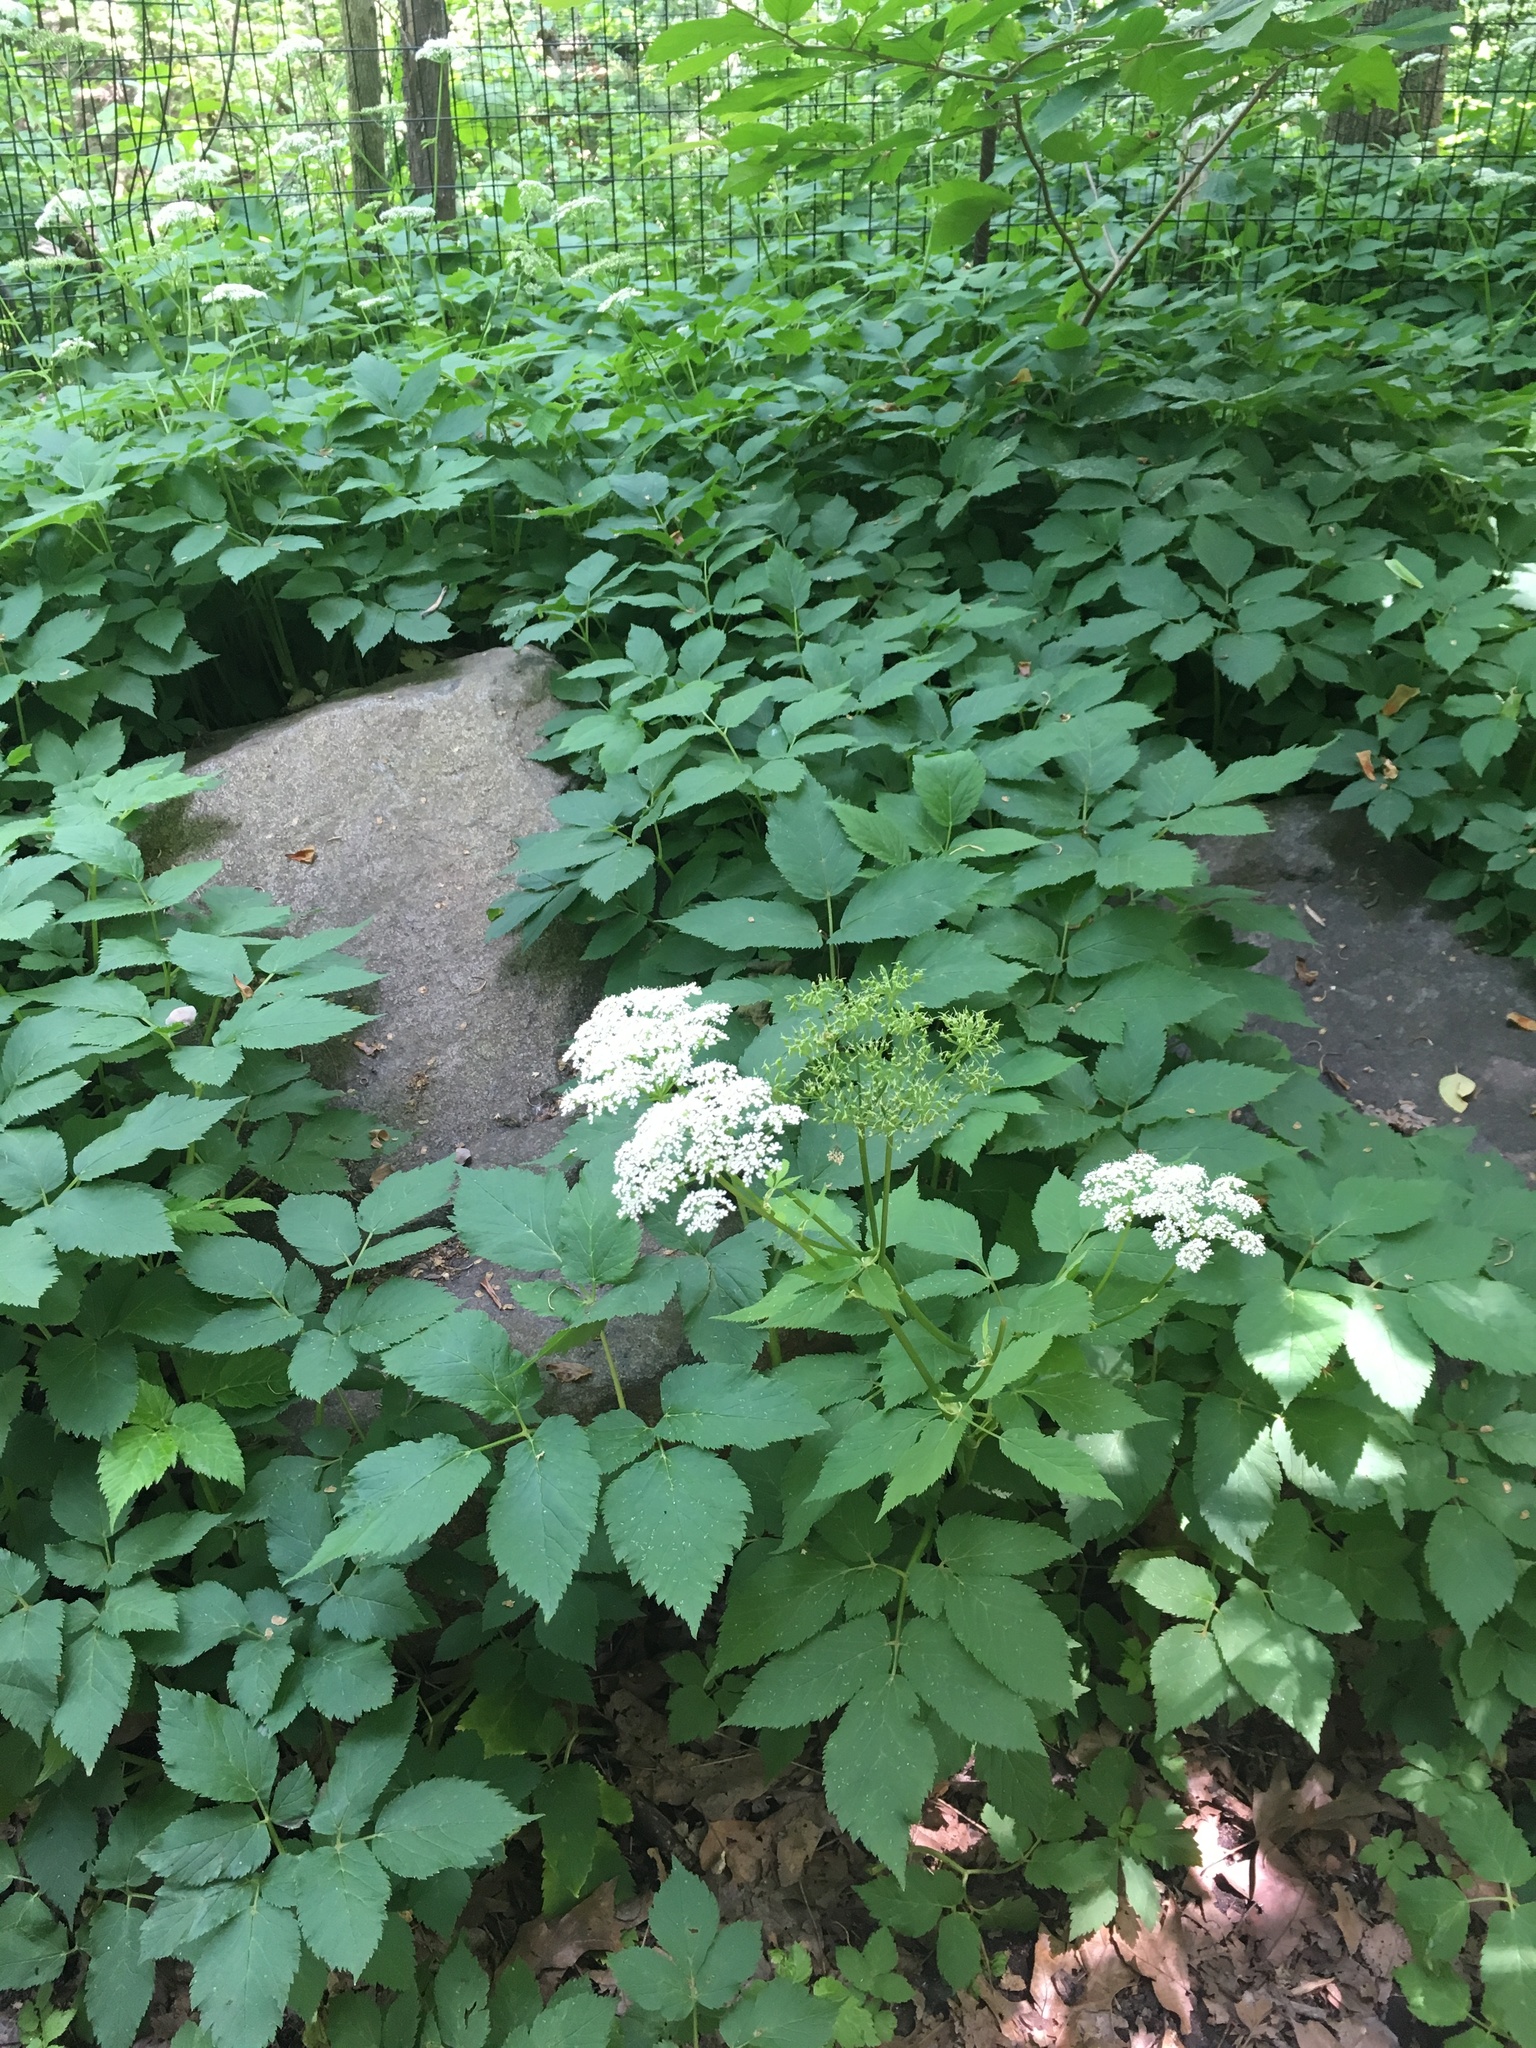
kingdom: Plantae
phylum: Tracheophyta
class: Magnoliopsida
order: Apiales
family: Apiaceae
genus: Aegopodium
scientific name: Aegopodium podagraria
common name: Ground-elder
